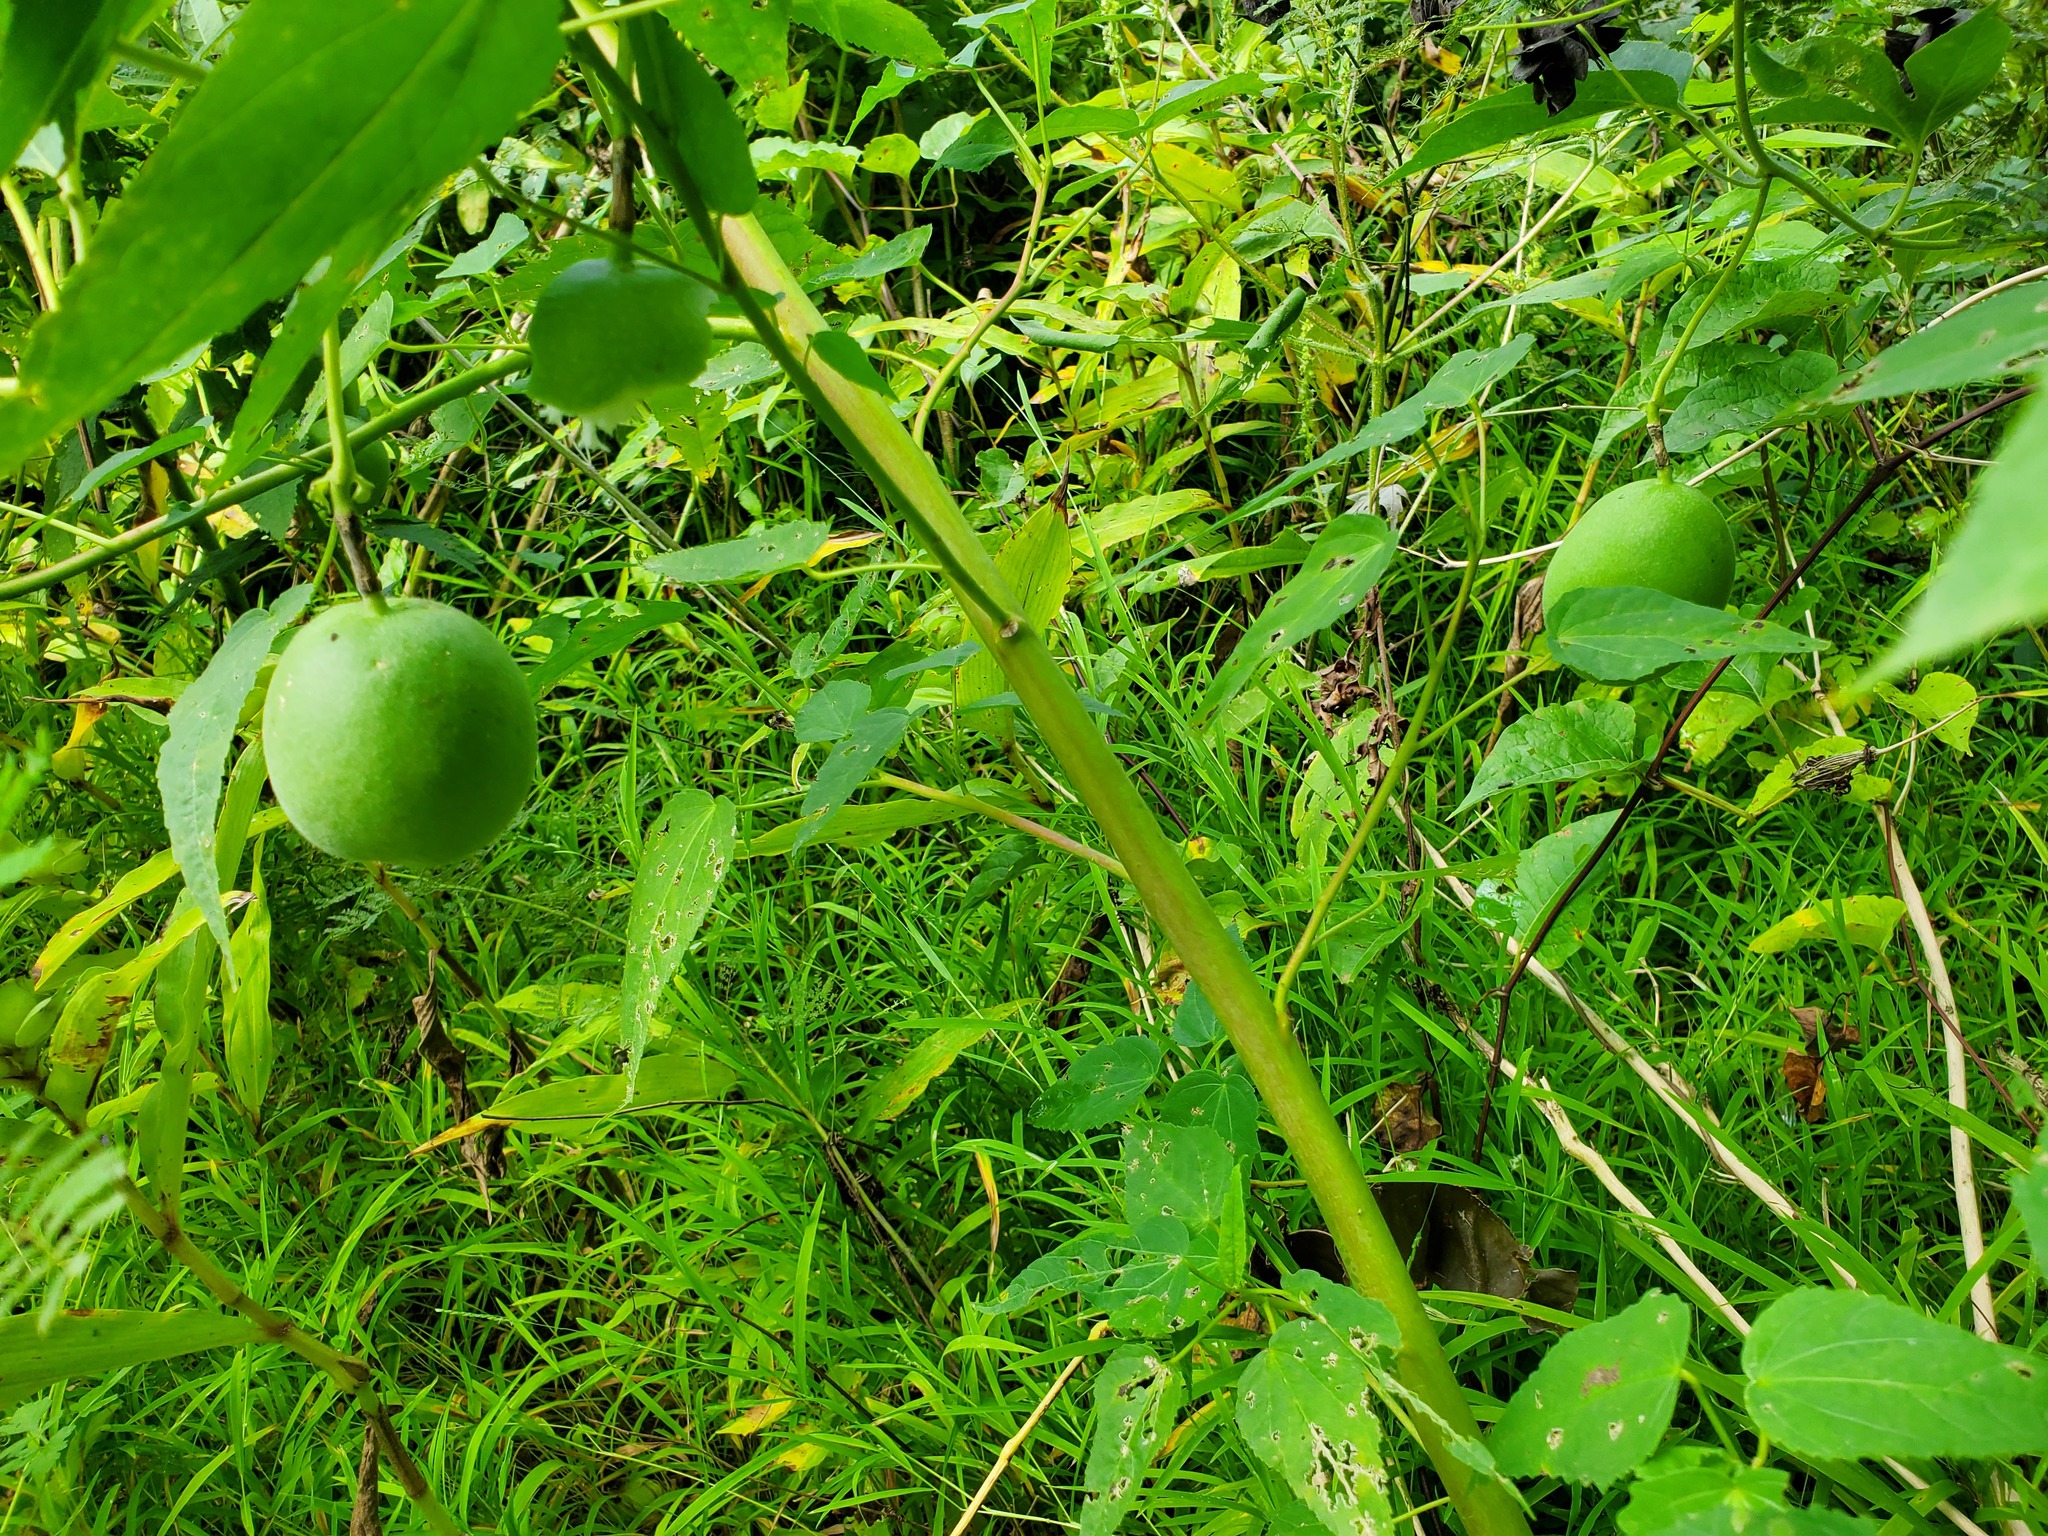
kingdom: Plantae
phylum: Tracheophyta
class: Magnoliopsida
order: Malpighiales
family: Passifloraceae
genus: Passiflora
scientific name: Passiflora incarnata
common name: Apricot-vine
